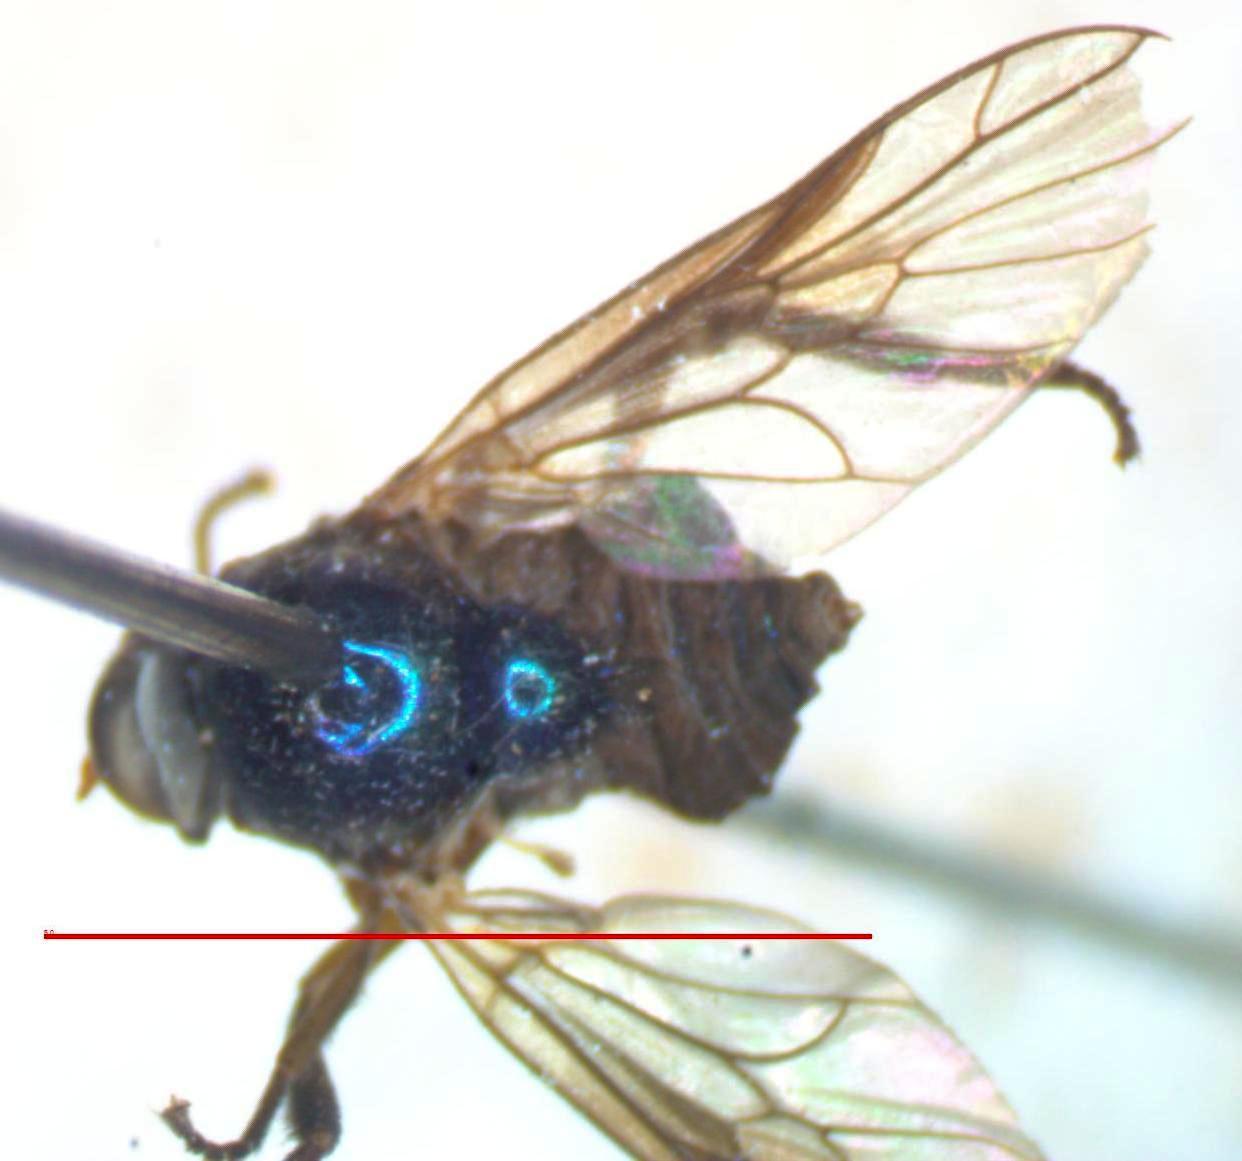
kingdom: Animalia
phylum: Arthropoda
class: Insecta
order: Diptera
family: Stratiomyidae
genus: Heteracanthia
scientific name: Heteracanthia ruficornis
